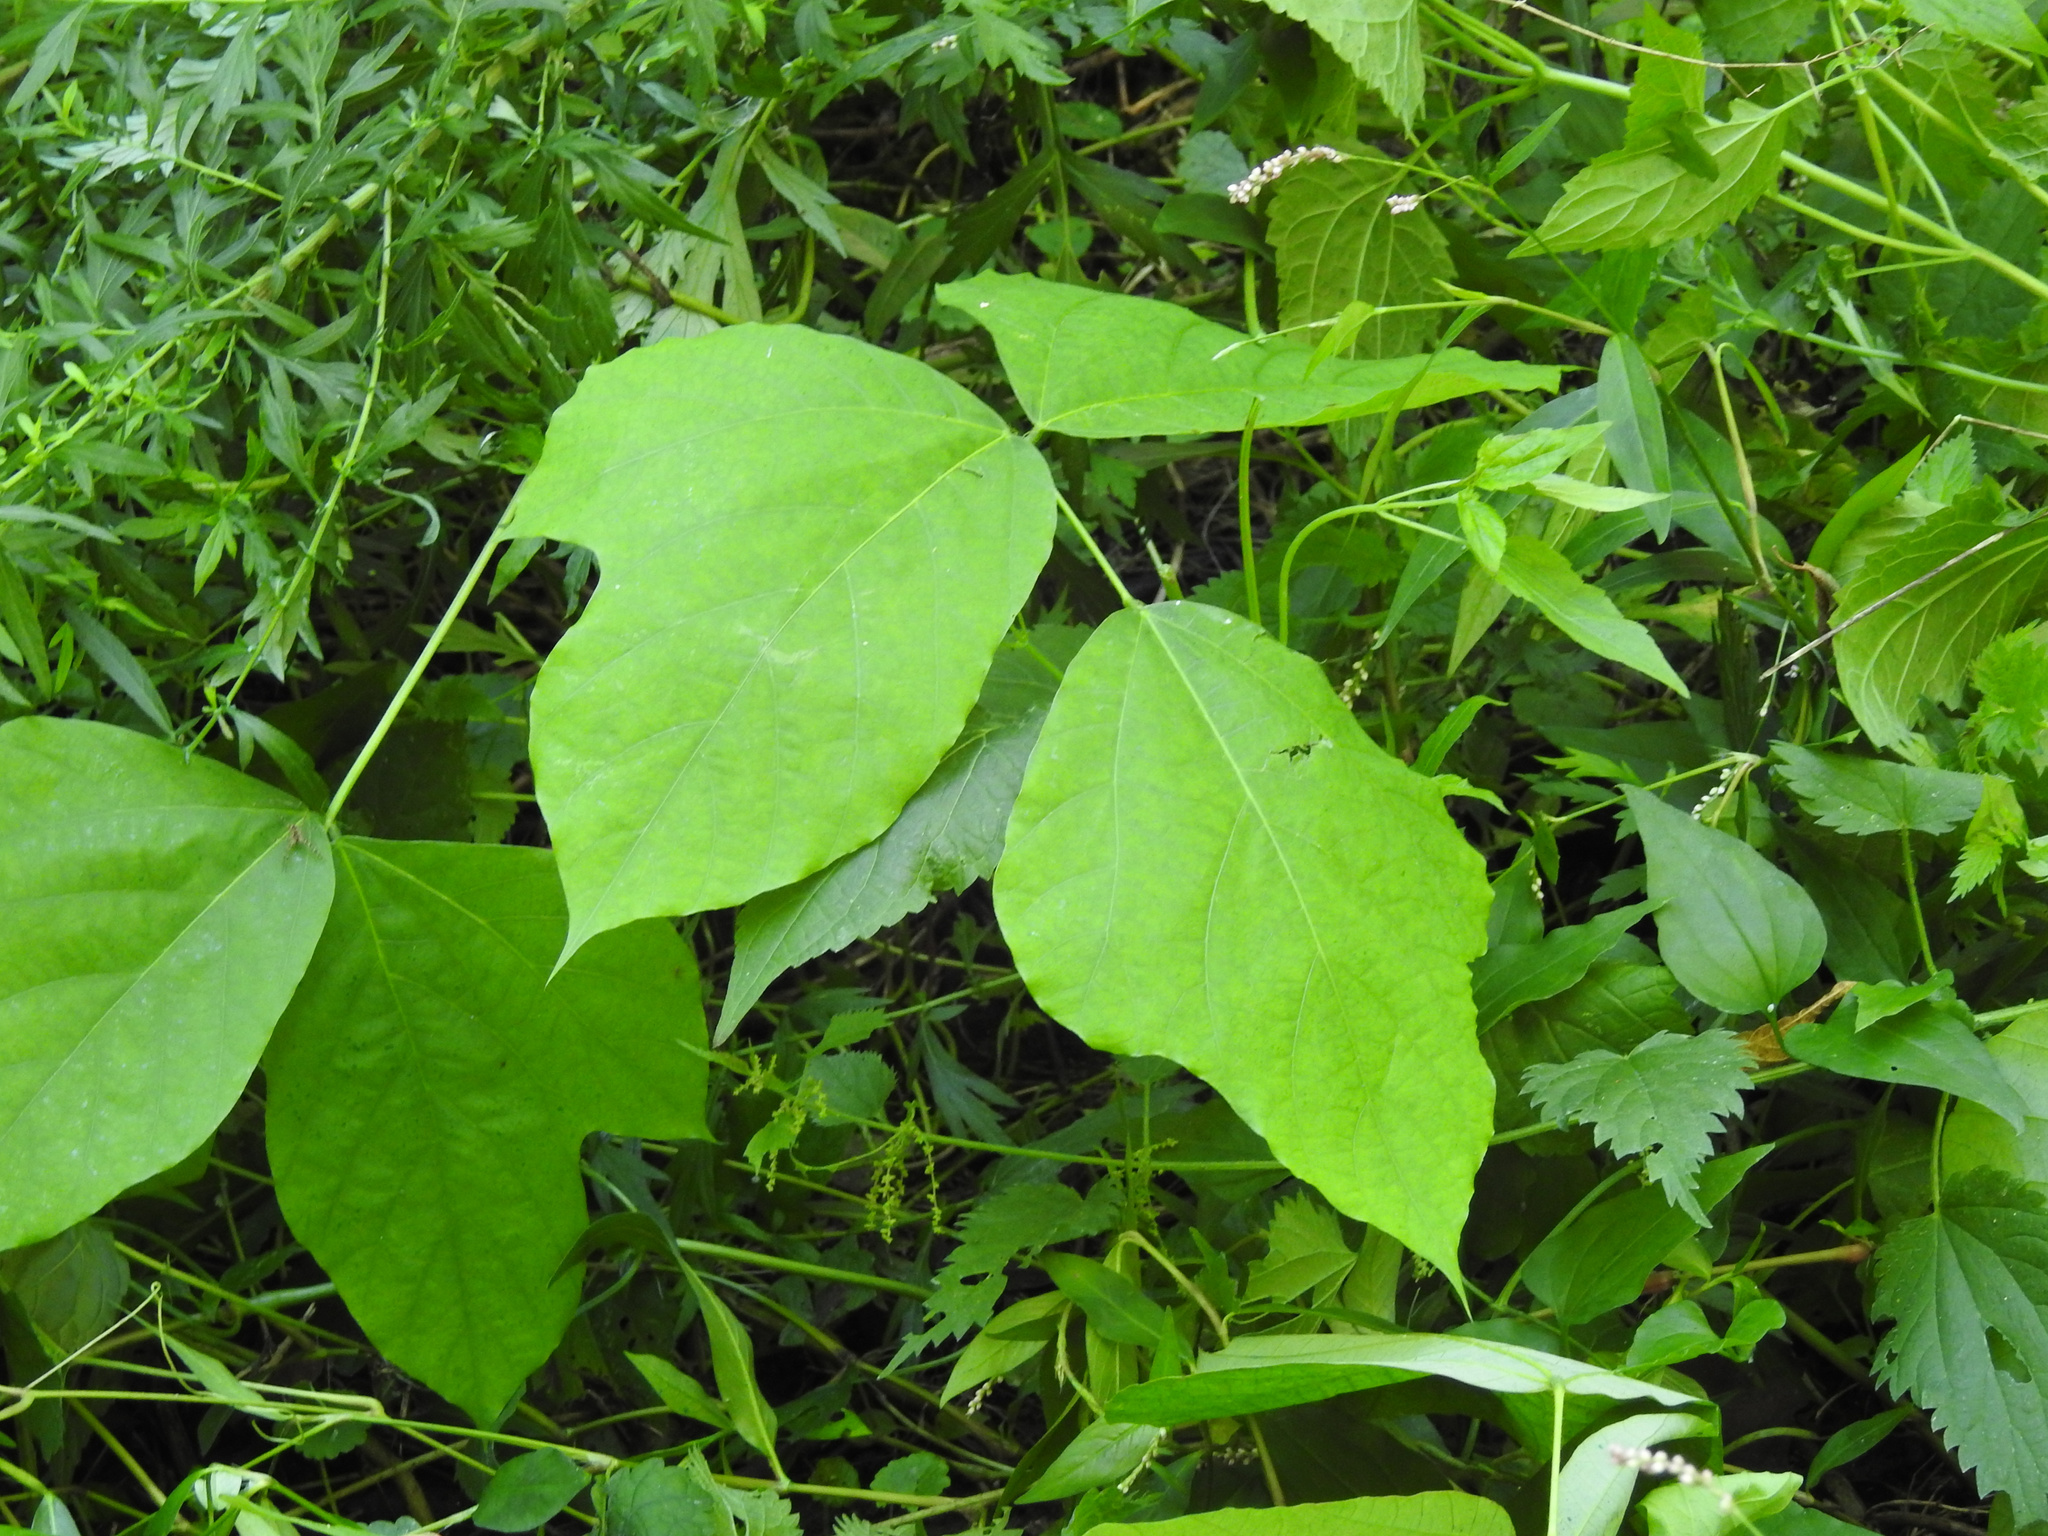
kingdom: Plantae
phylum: Tracheophyta
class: Magnoliopsida
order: Fabales
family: Fabaceae
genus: Pueraria
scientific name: Pueraria montana
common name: Kudzu
